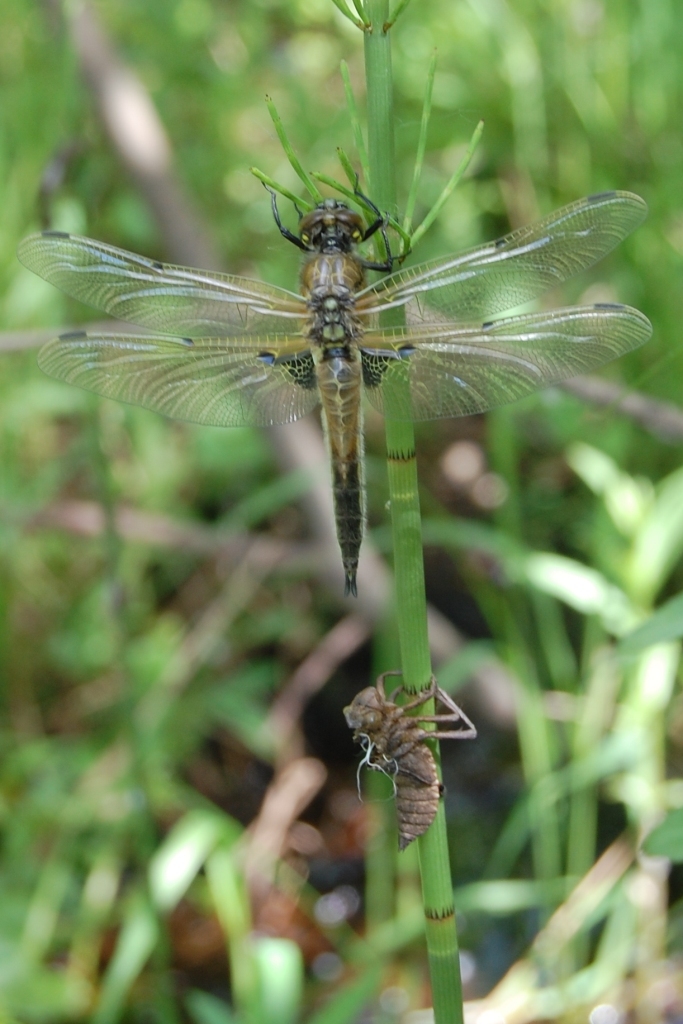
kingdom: Animalia
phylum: Arthropoda
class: Insecta
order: Odonata
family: Libellulidae
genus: Libellula
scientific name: Libellula quadrimaculata
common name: Four-spotted chaser
